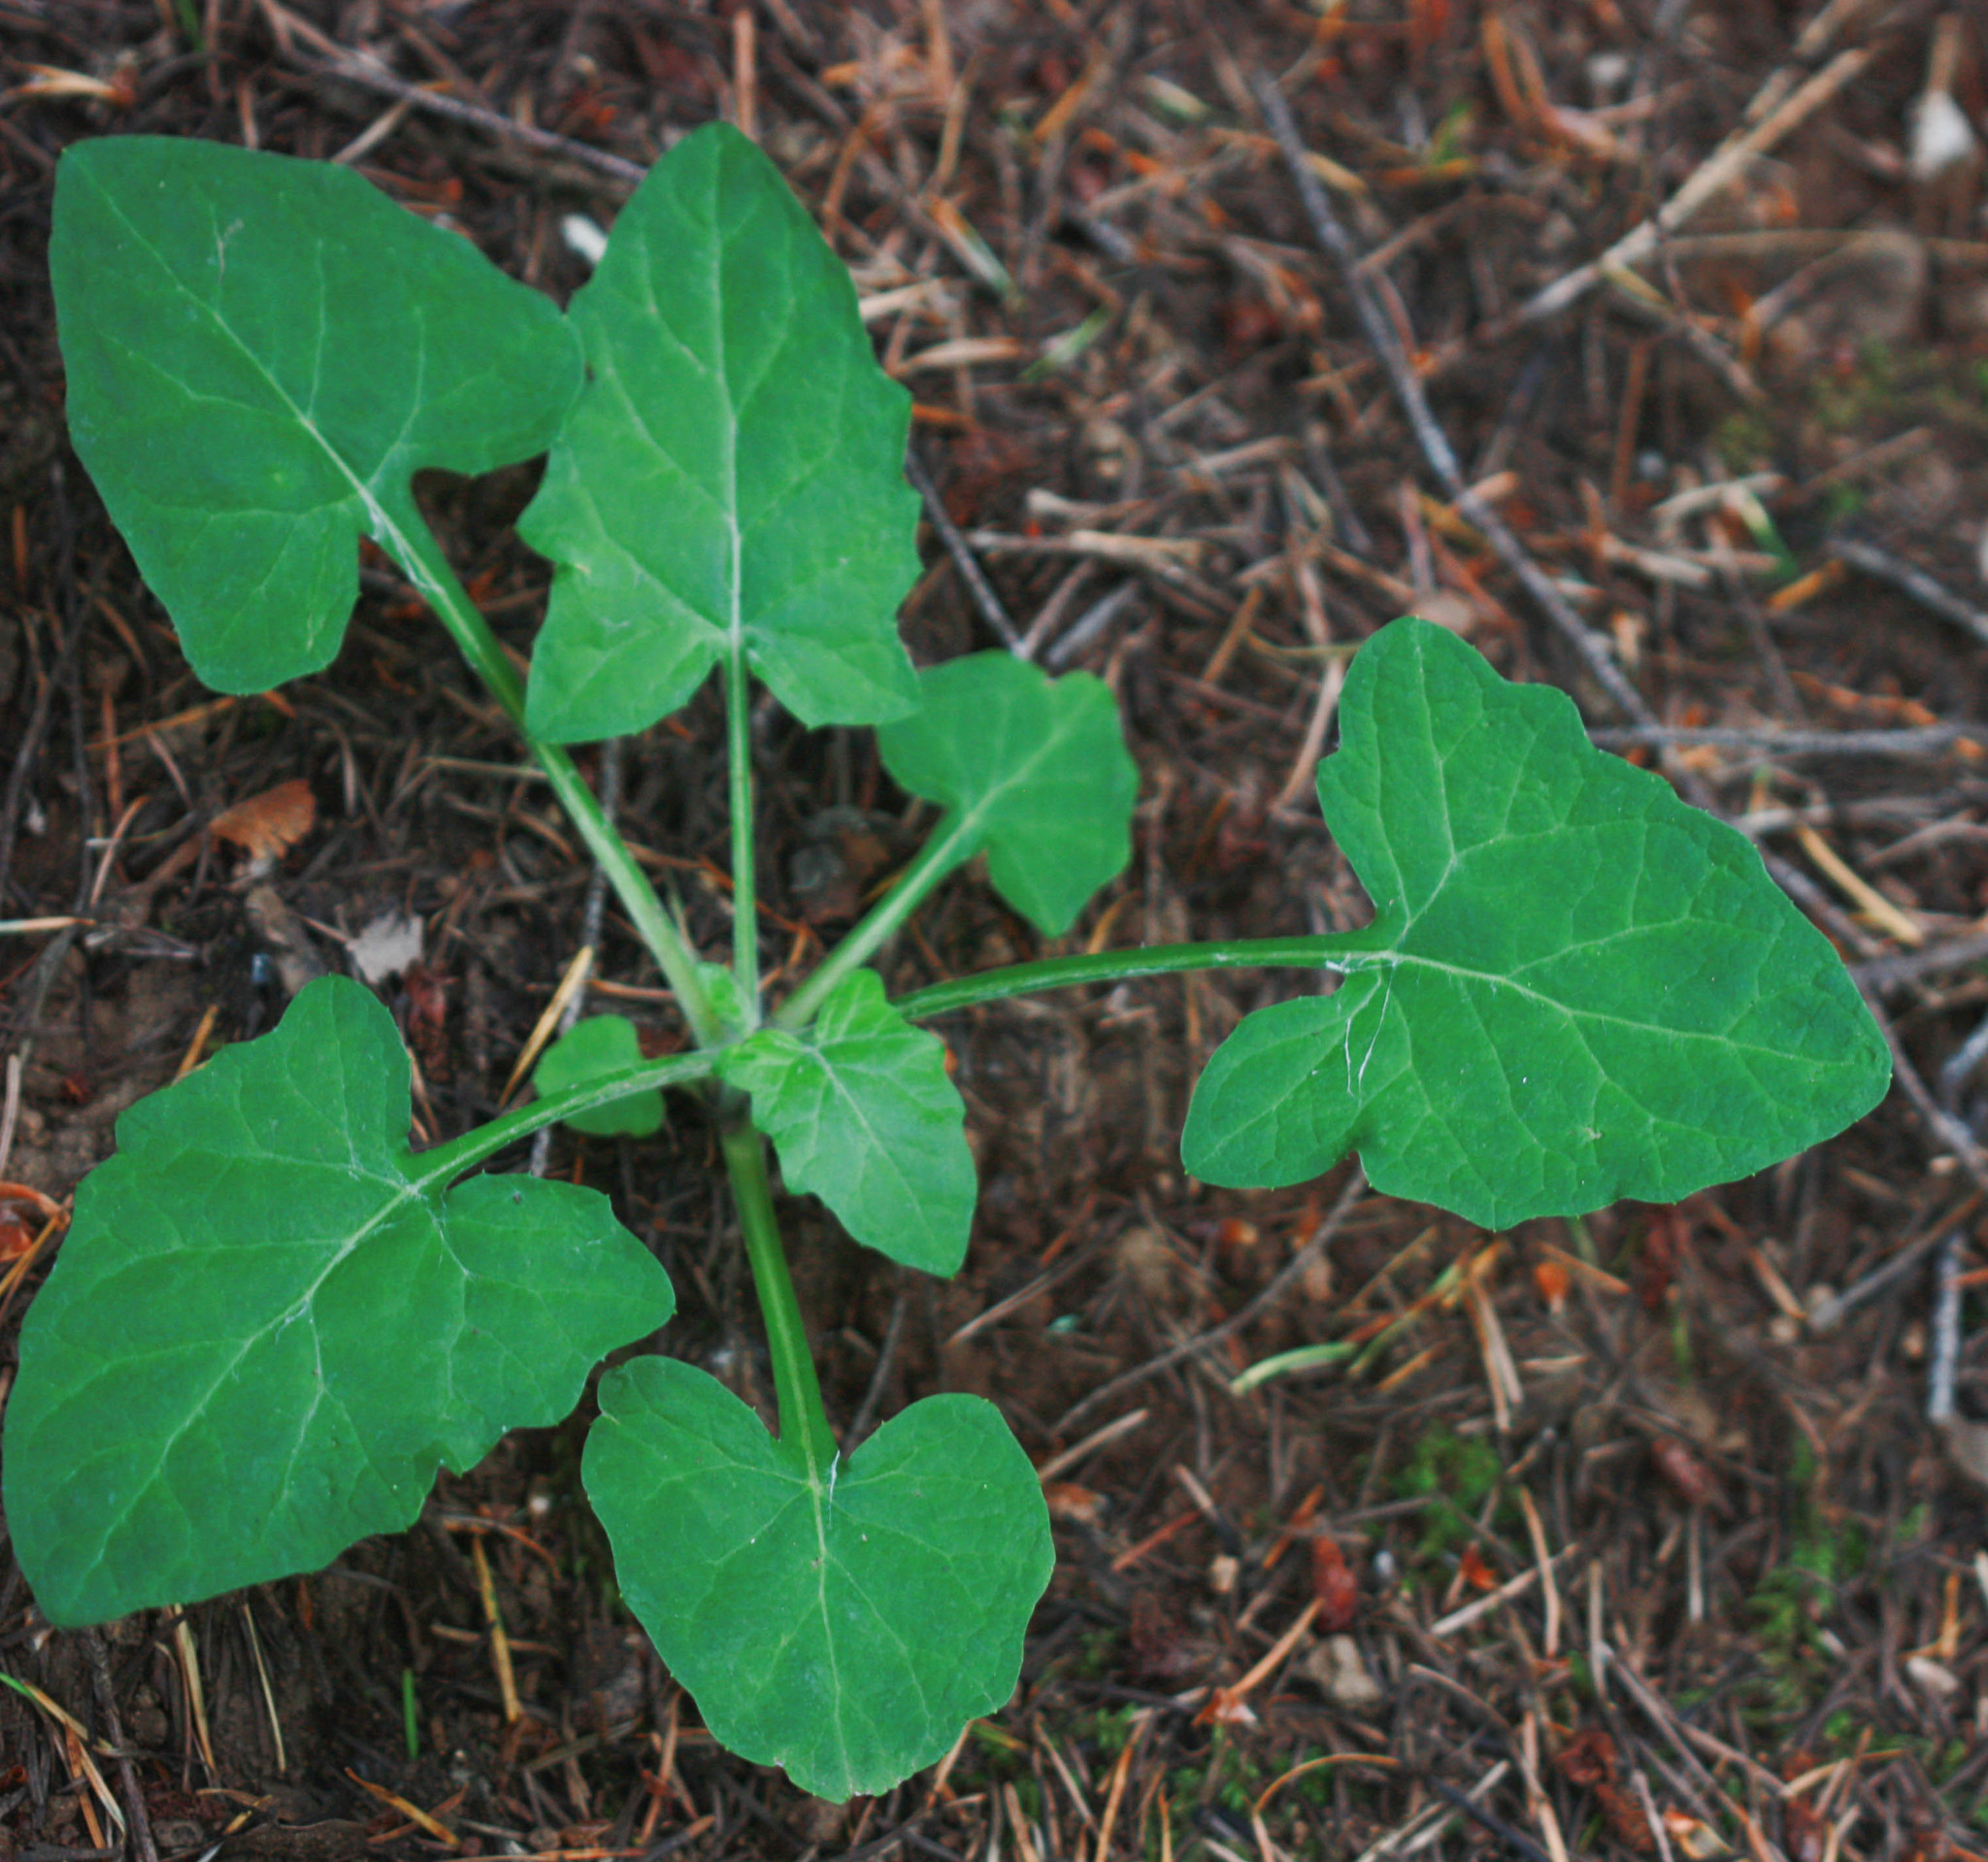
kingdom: Plantae
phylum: Tracheophyta
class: Magnoliopsida
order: Asterales
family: Asteraceae
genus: Adenocaulon
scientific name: Adenocaulon bicolor
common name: Trailplant
